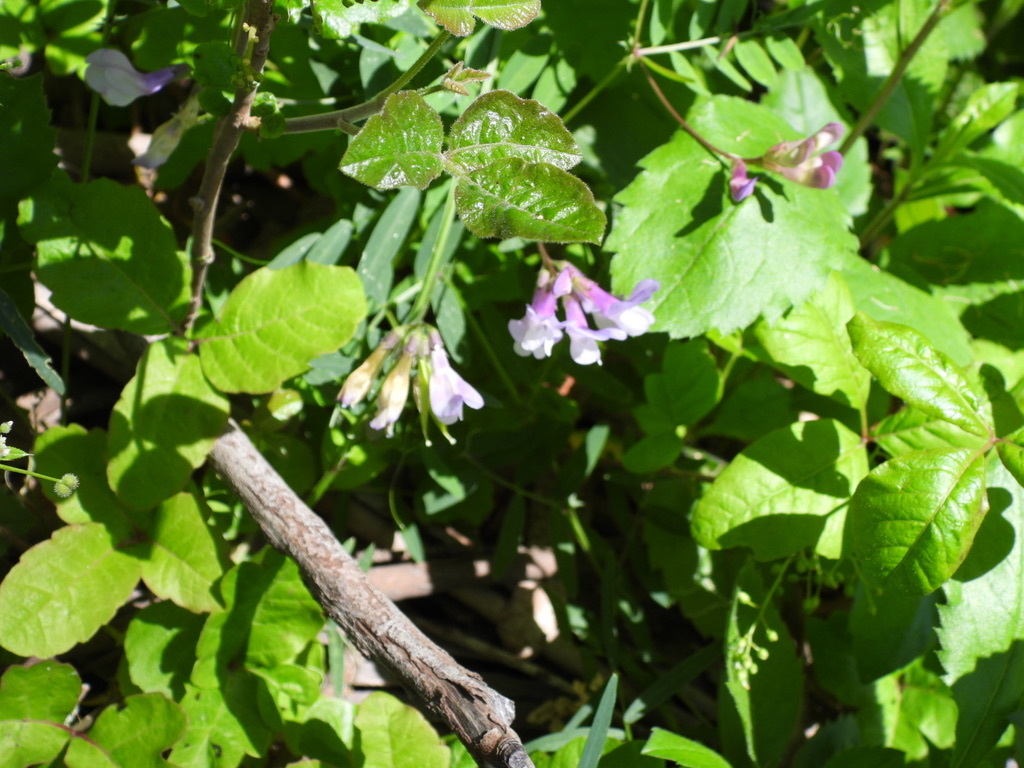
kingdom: Plantae
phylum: Tracheophyta
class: Magnoliopsida
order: Fabales
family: Fabaceae
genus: Vicia
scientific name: Vicia americana
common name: American vetch
